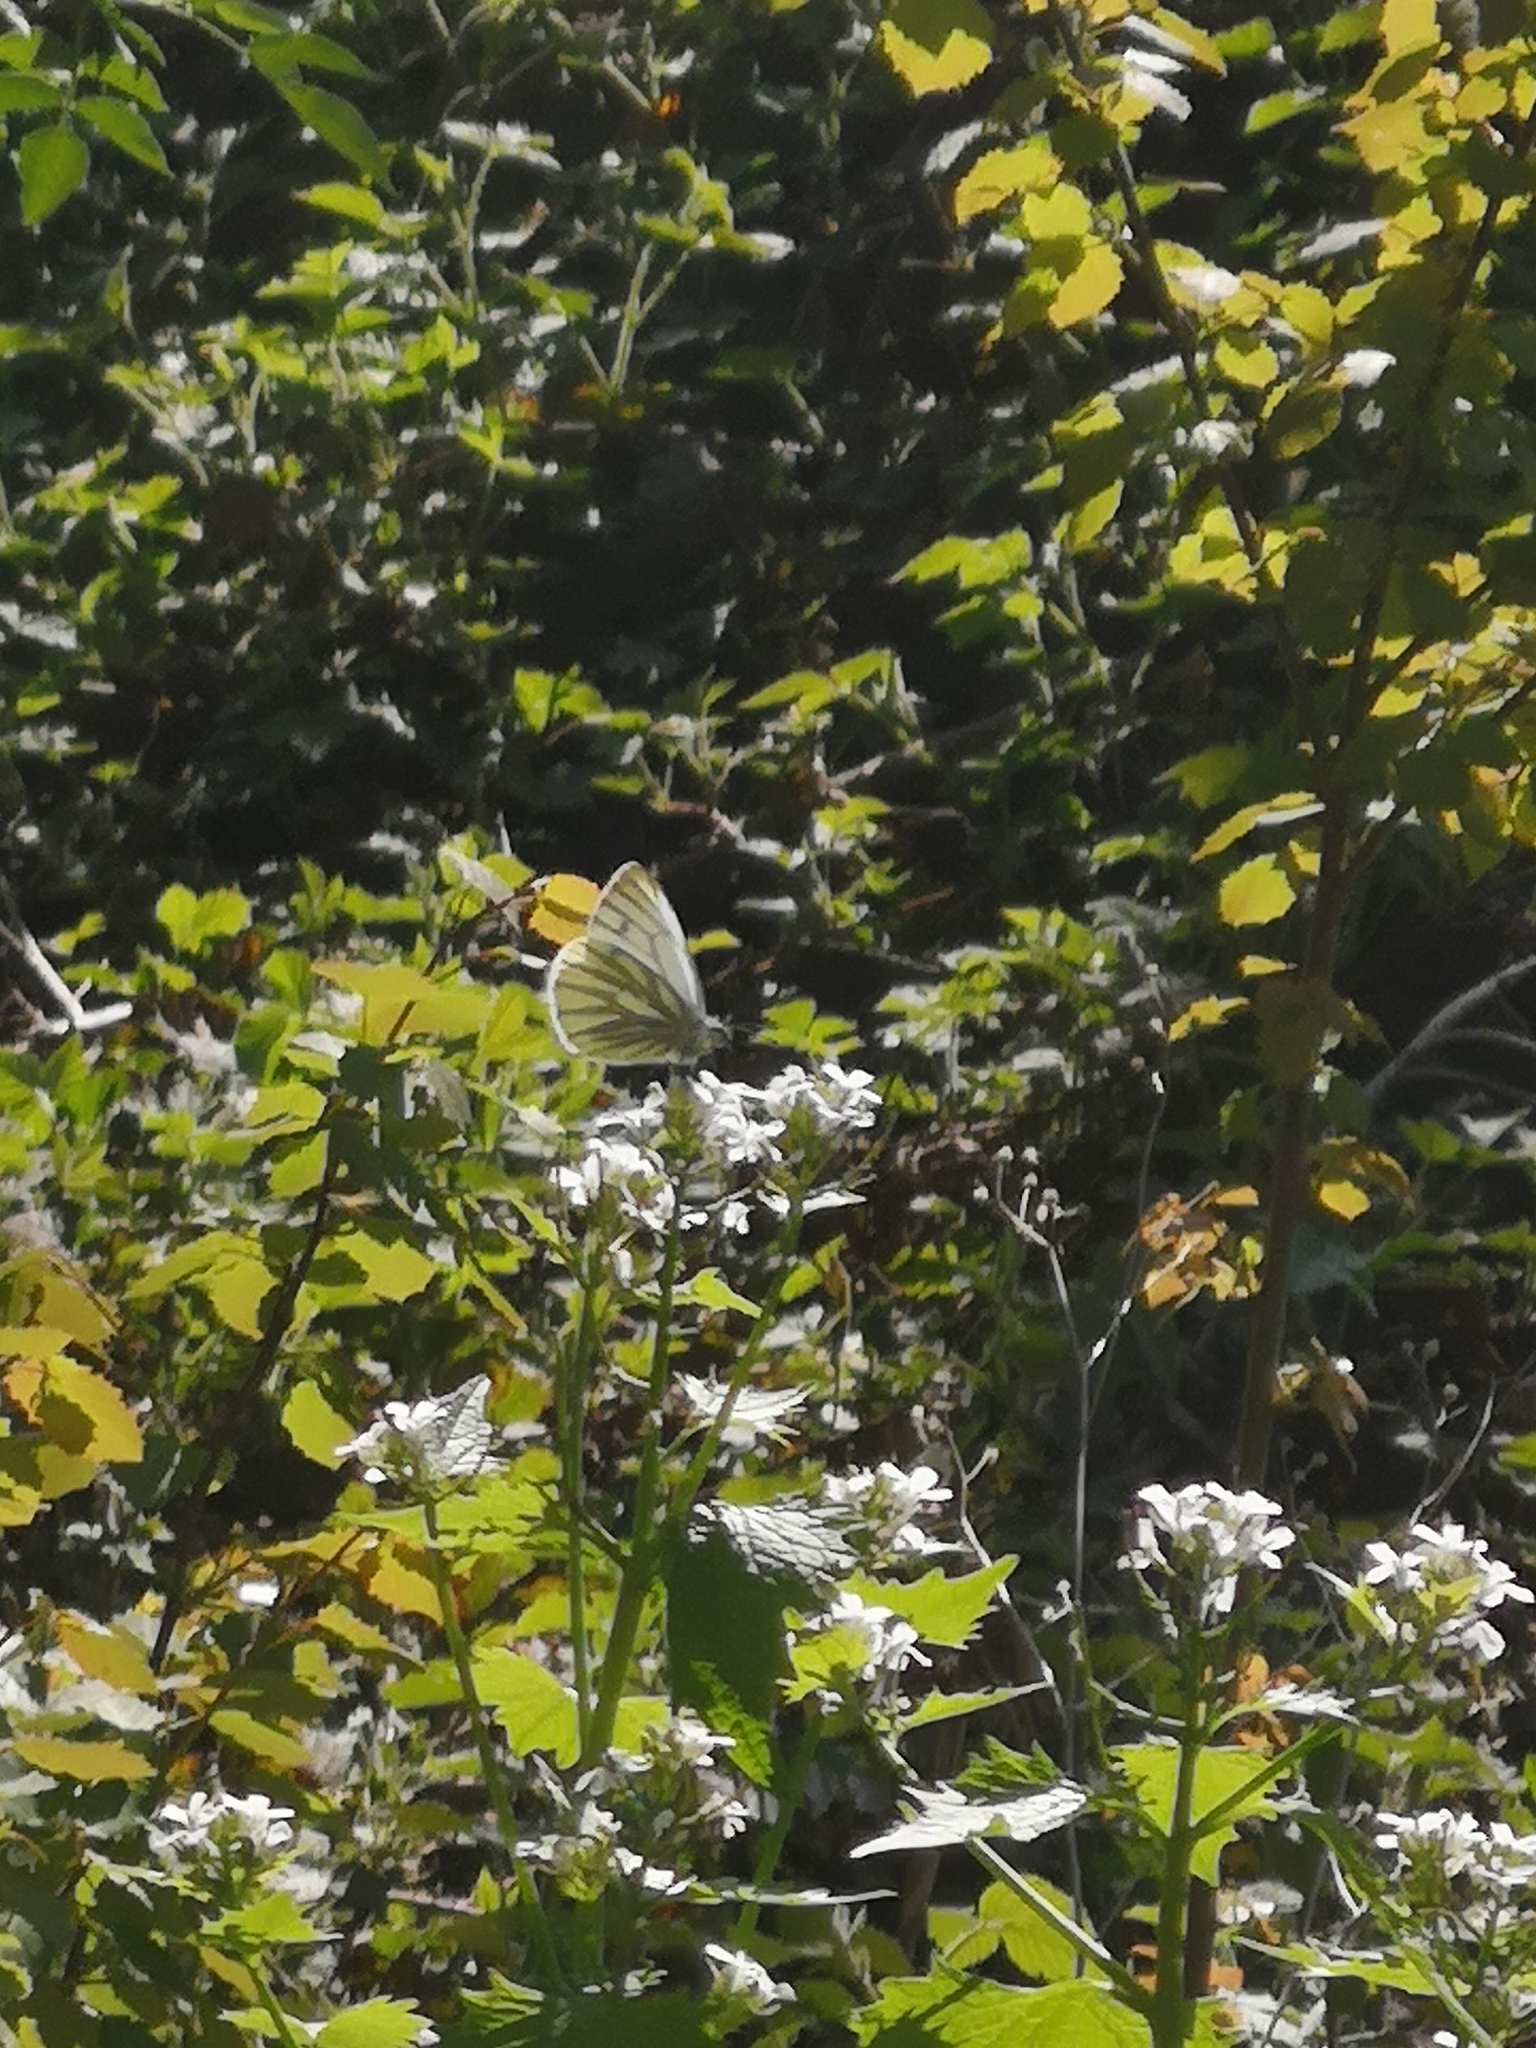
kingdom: Animalia
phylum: Arthropoda
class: Insecta
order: Lepidoptera
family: Pieridae
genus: Pieris
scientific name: Pieris napi
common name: Green-veined white
